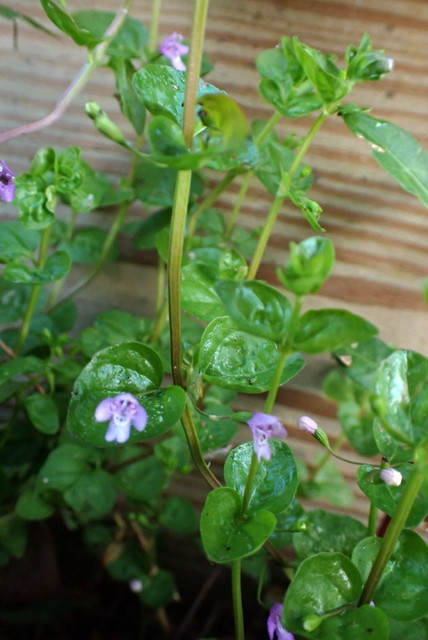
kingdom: Plantae
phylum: Tracheophyta
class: Magnoliopsida
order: Lamiales
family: Lamiaceae
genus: Clinopodium
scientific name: Clinopodium brownei
